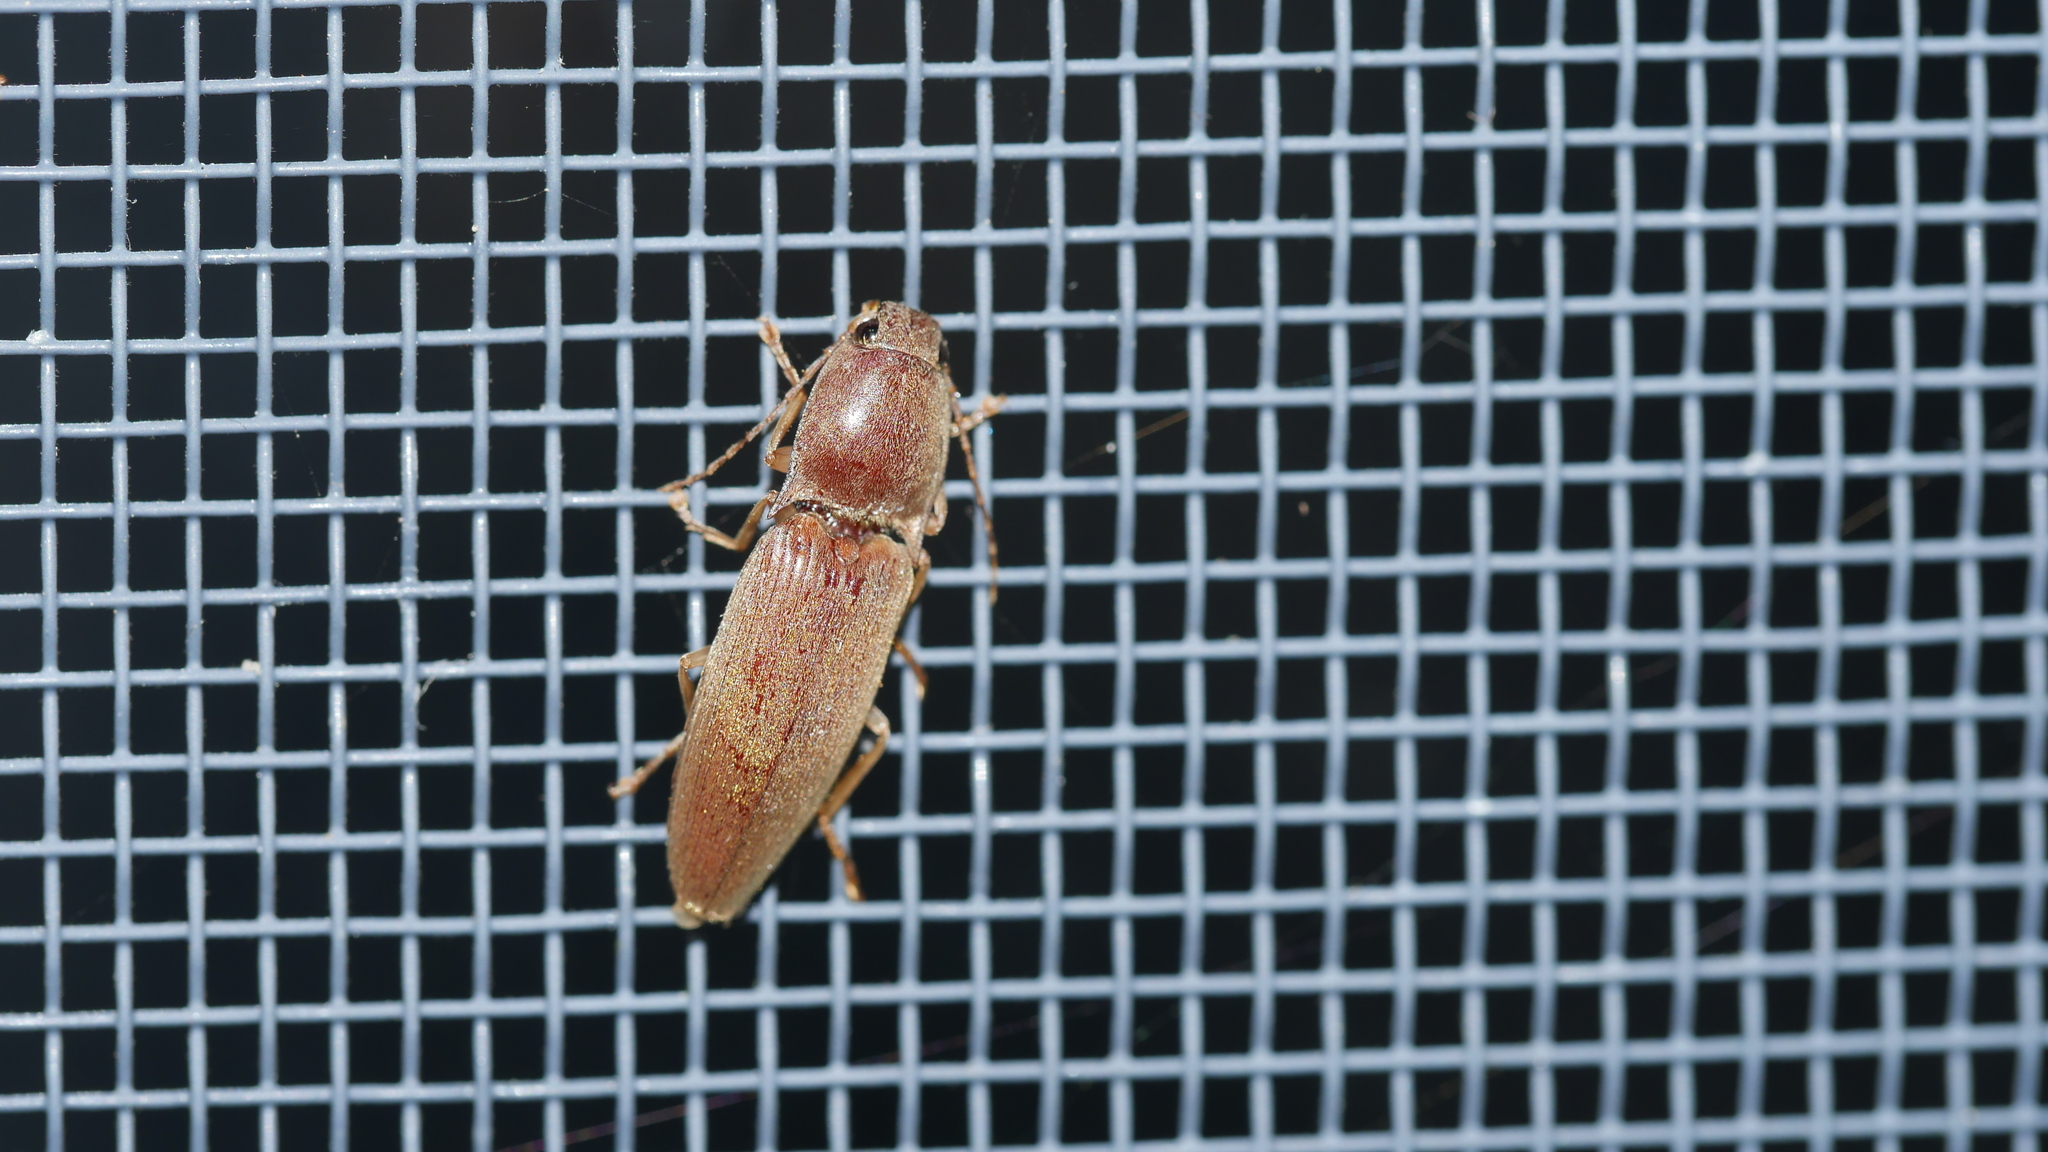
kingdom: Animalia
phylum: Arthropoda
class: Insecta
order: Coleoptera
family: Elateridae
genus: Monocrepidius
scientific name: Monocrepidius lividus
